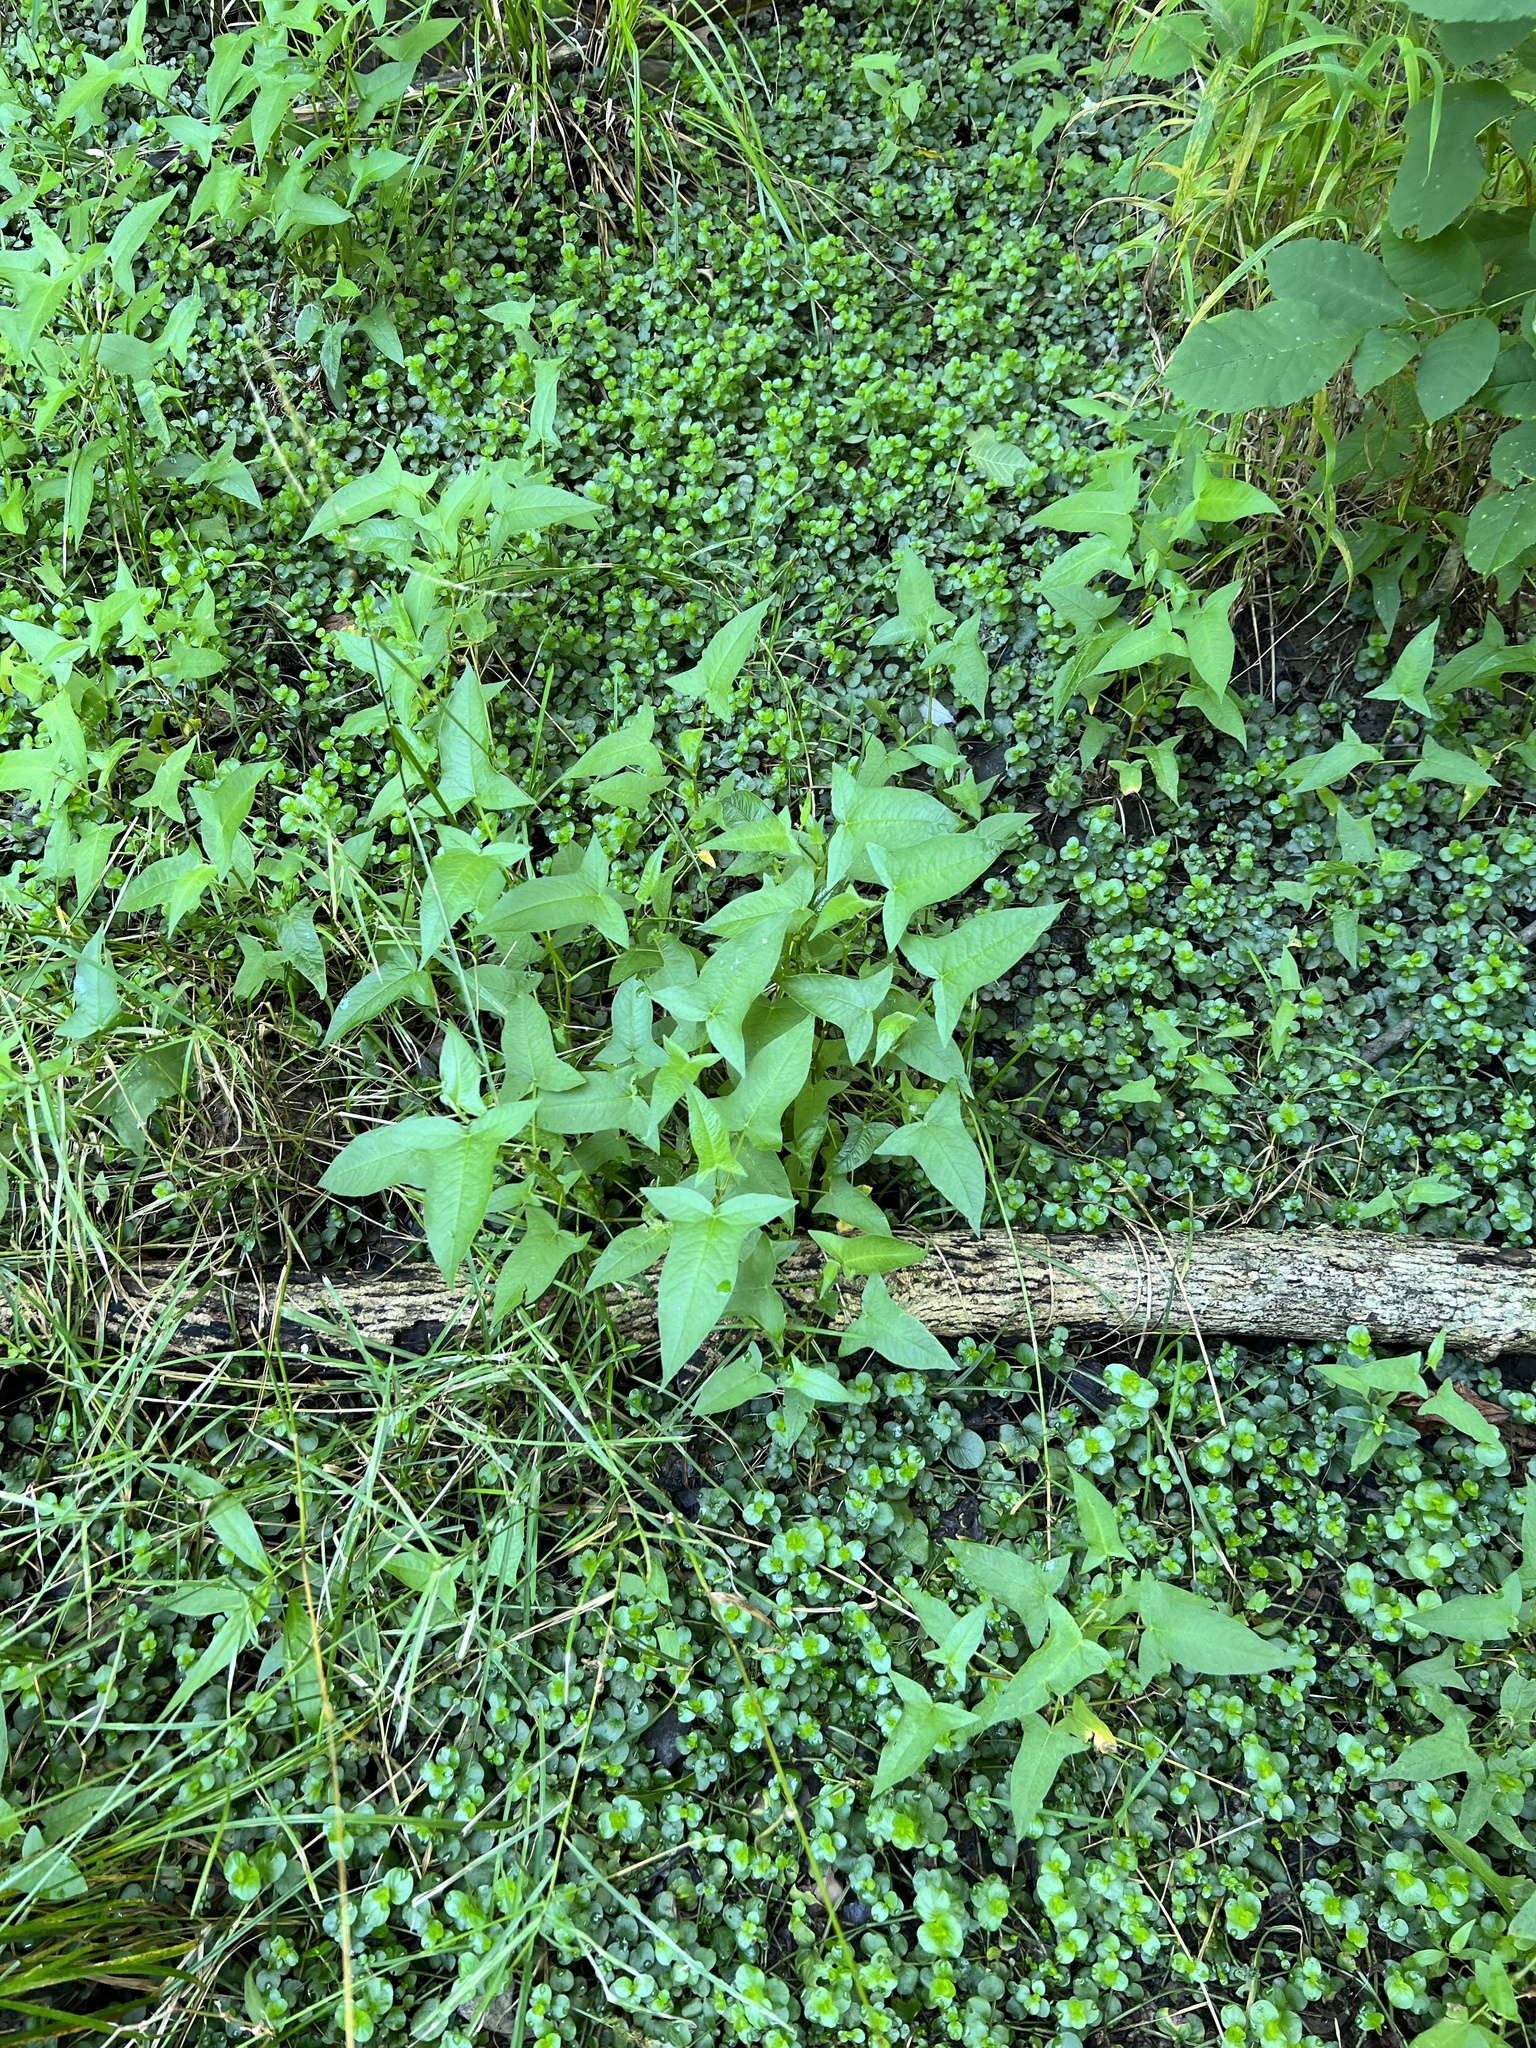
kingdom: Plantae
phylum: Tracheophyta
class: Magnoliopsida
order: Caryophyllales
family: Polygonaceae
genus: Persicaria
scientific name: Persicaria arifolia
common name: Halberd-leaved tear-thumb
